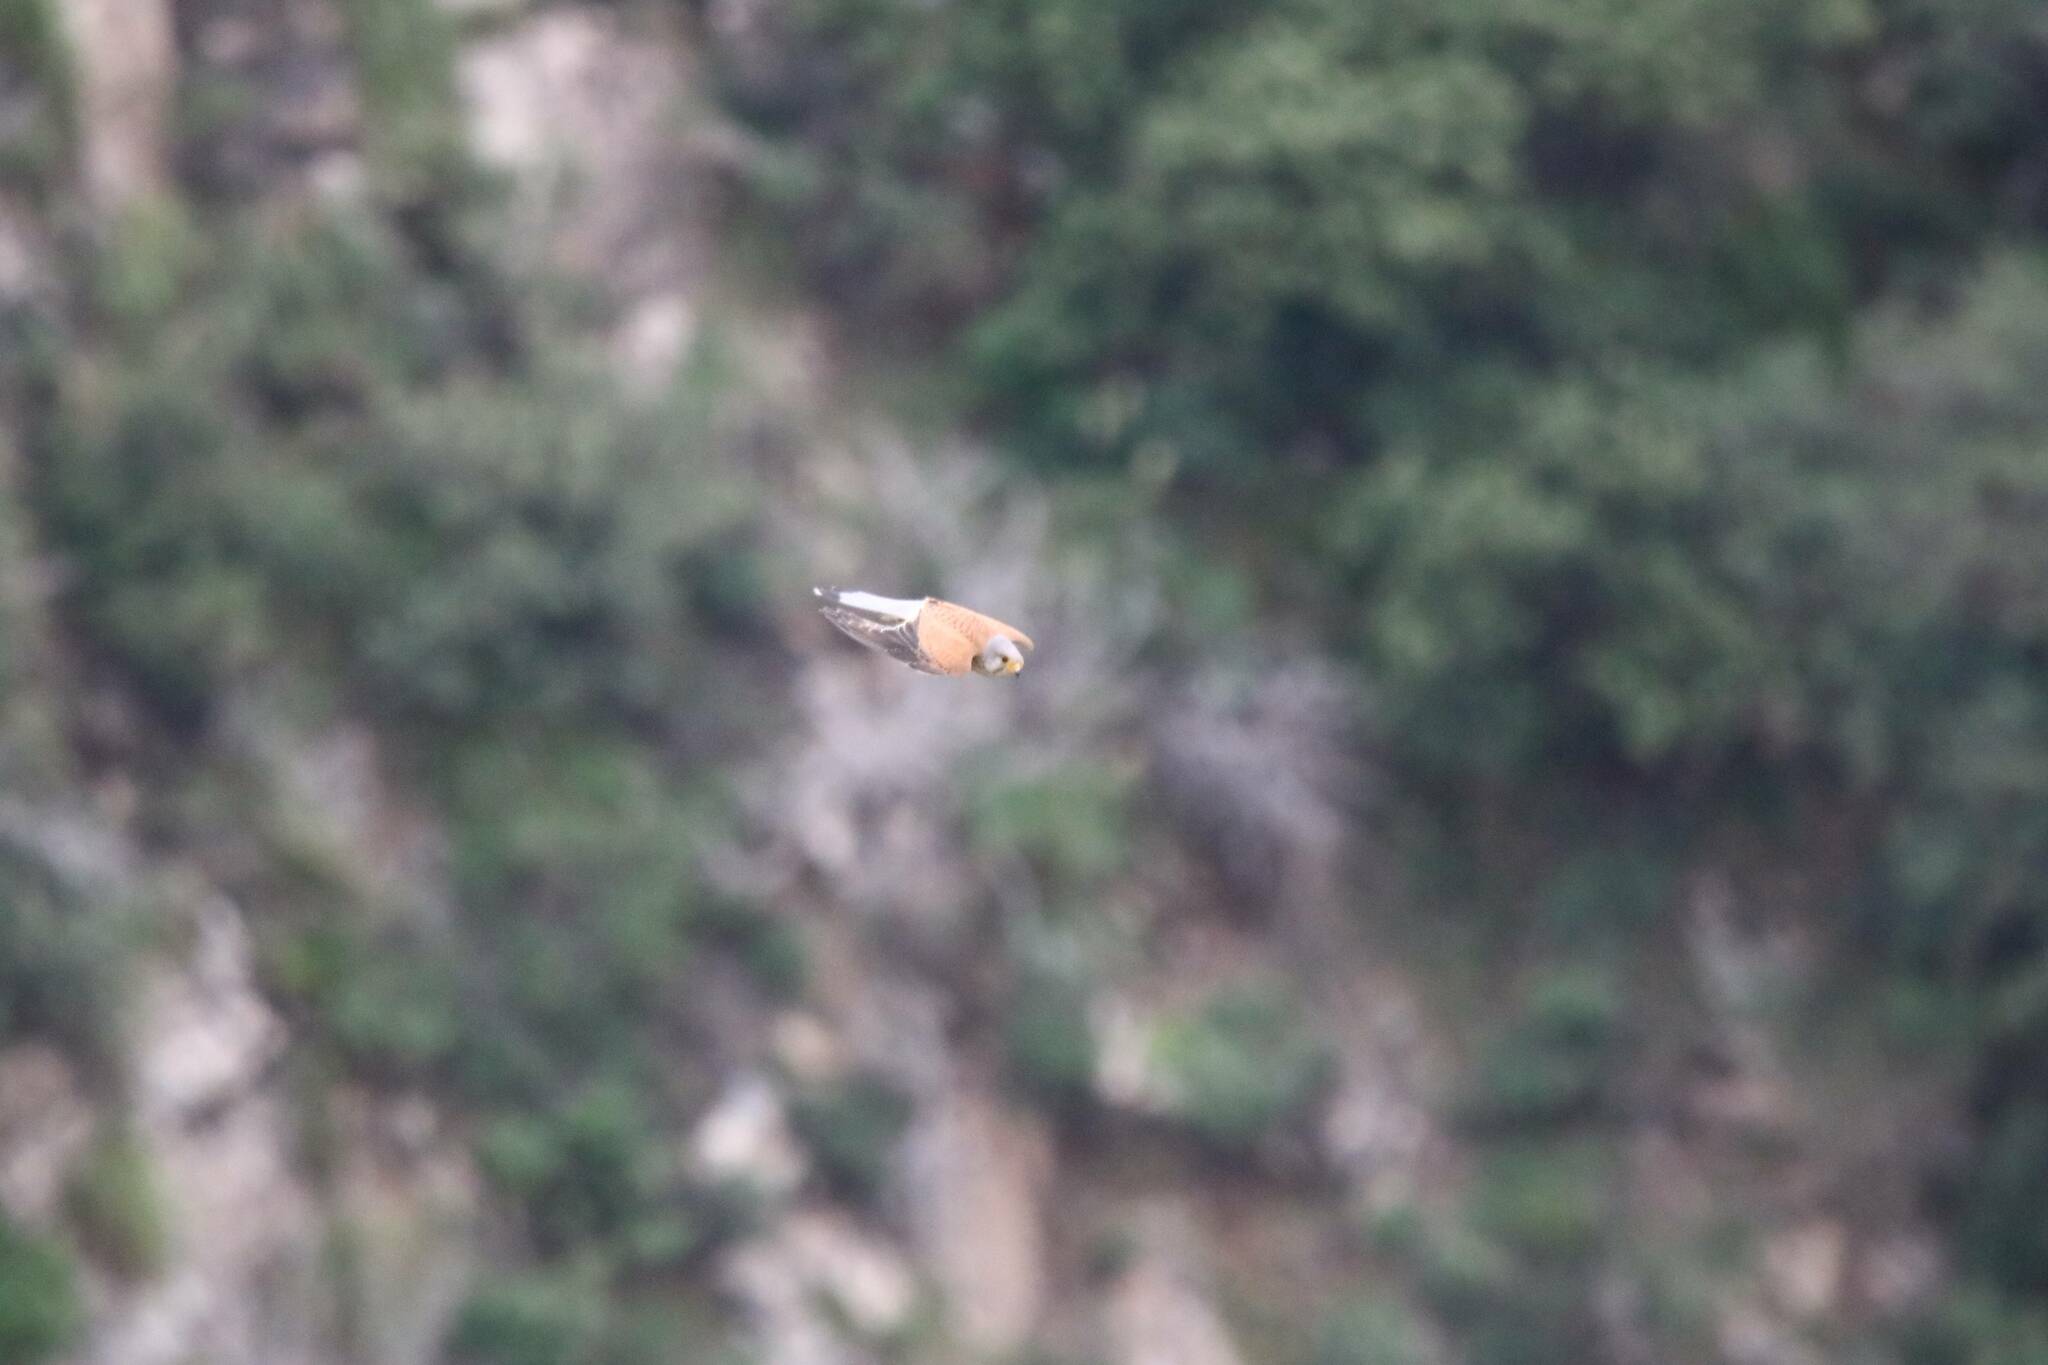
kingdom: Animalia
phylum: Chordata
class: Aves
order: Falconiformes
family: Falconidae
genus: Falco
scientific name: Falco tinnunculus
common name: Common kestrel
